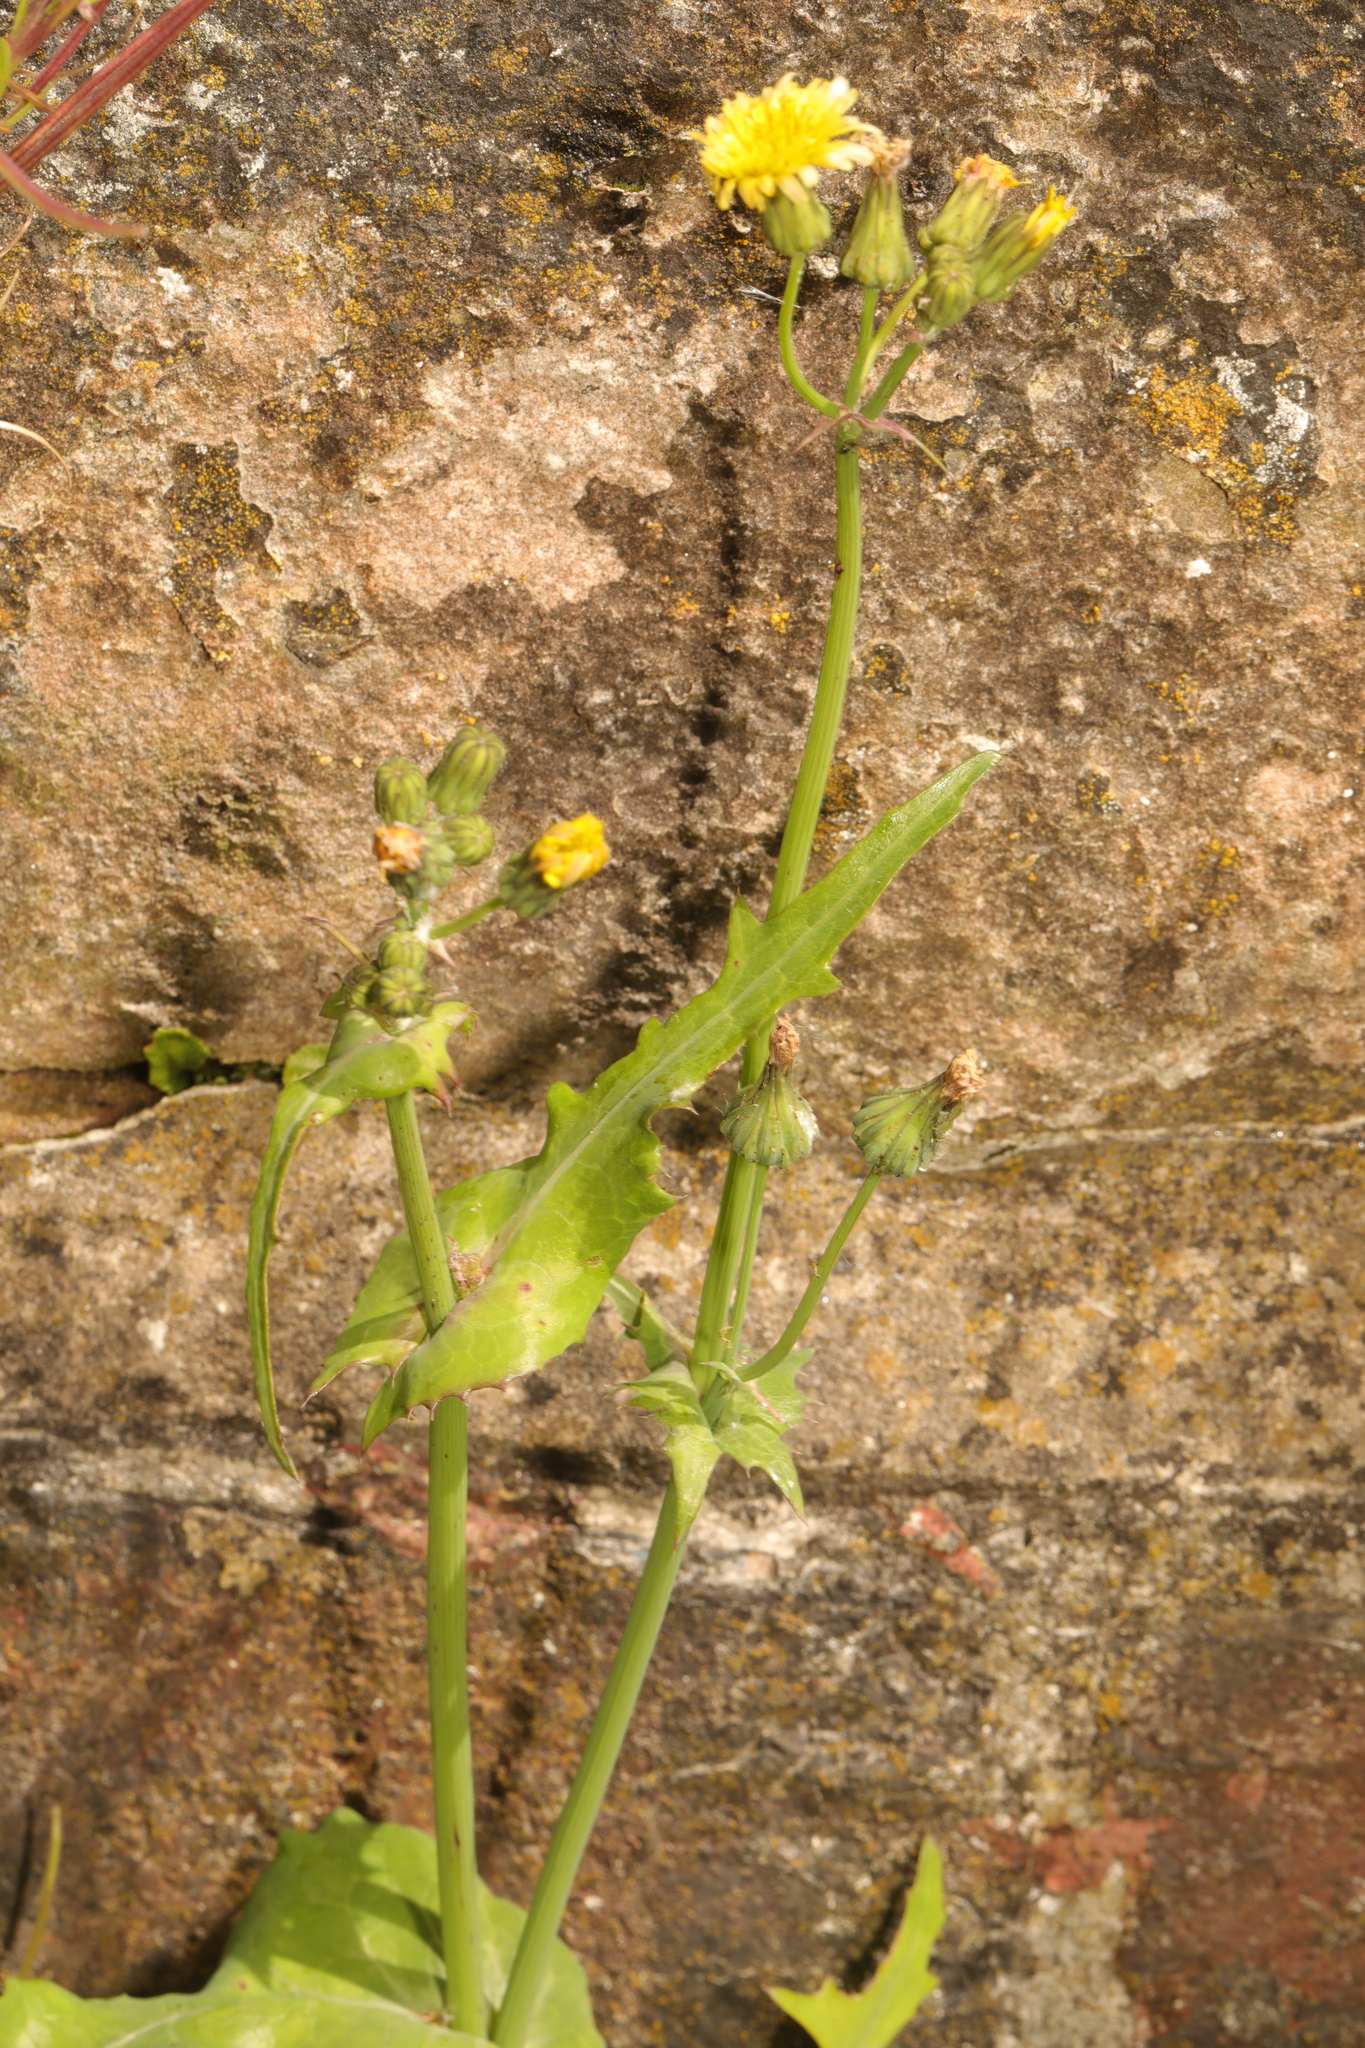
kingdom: Plantae
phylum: Tracheophyta
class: Magnoliopsida
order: Asterales
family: Asteraceae
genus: Sonchus
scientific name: Sonchus oleraceus
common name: Common sowthistle
